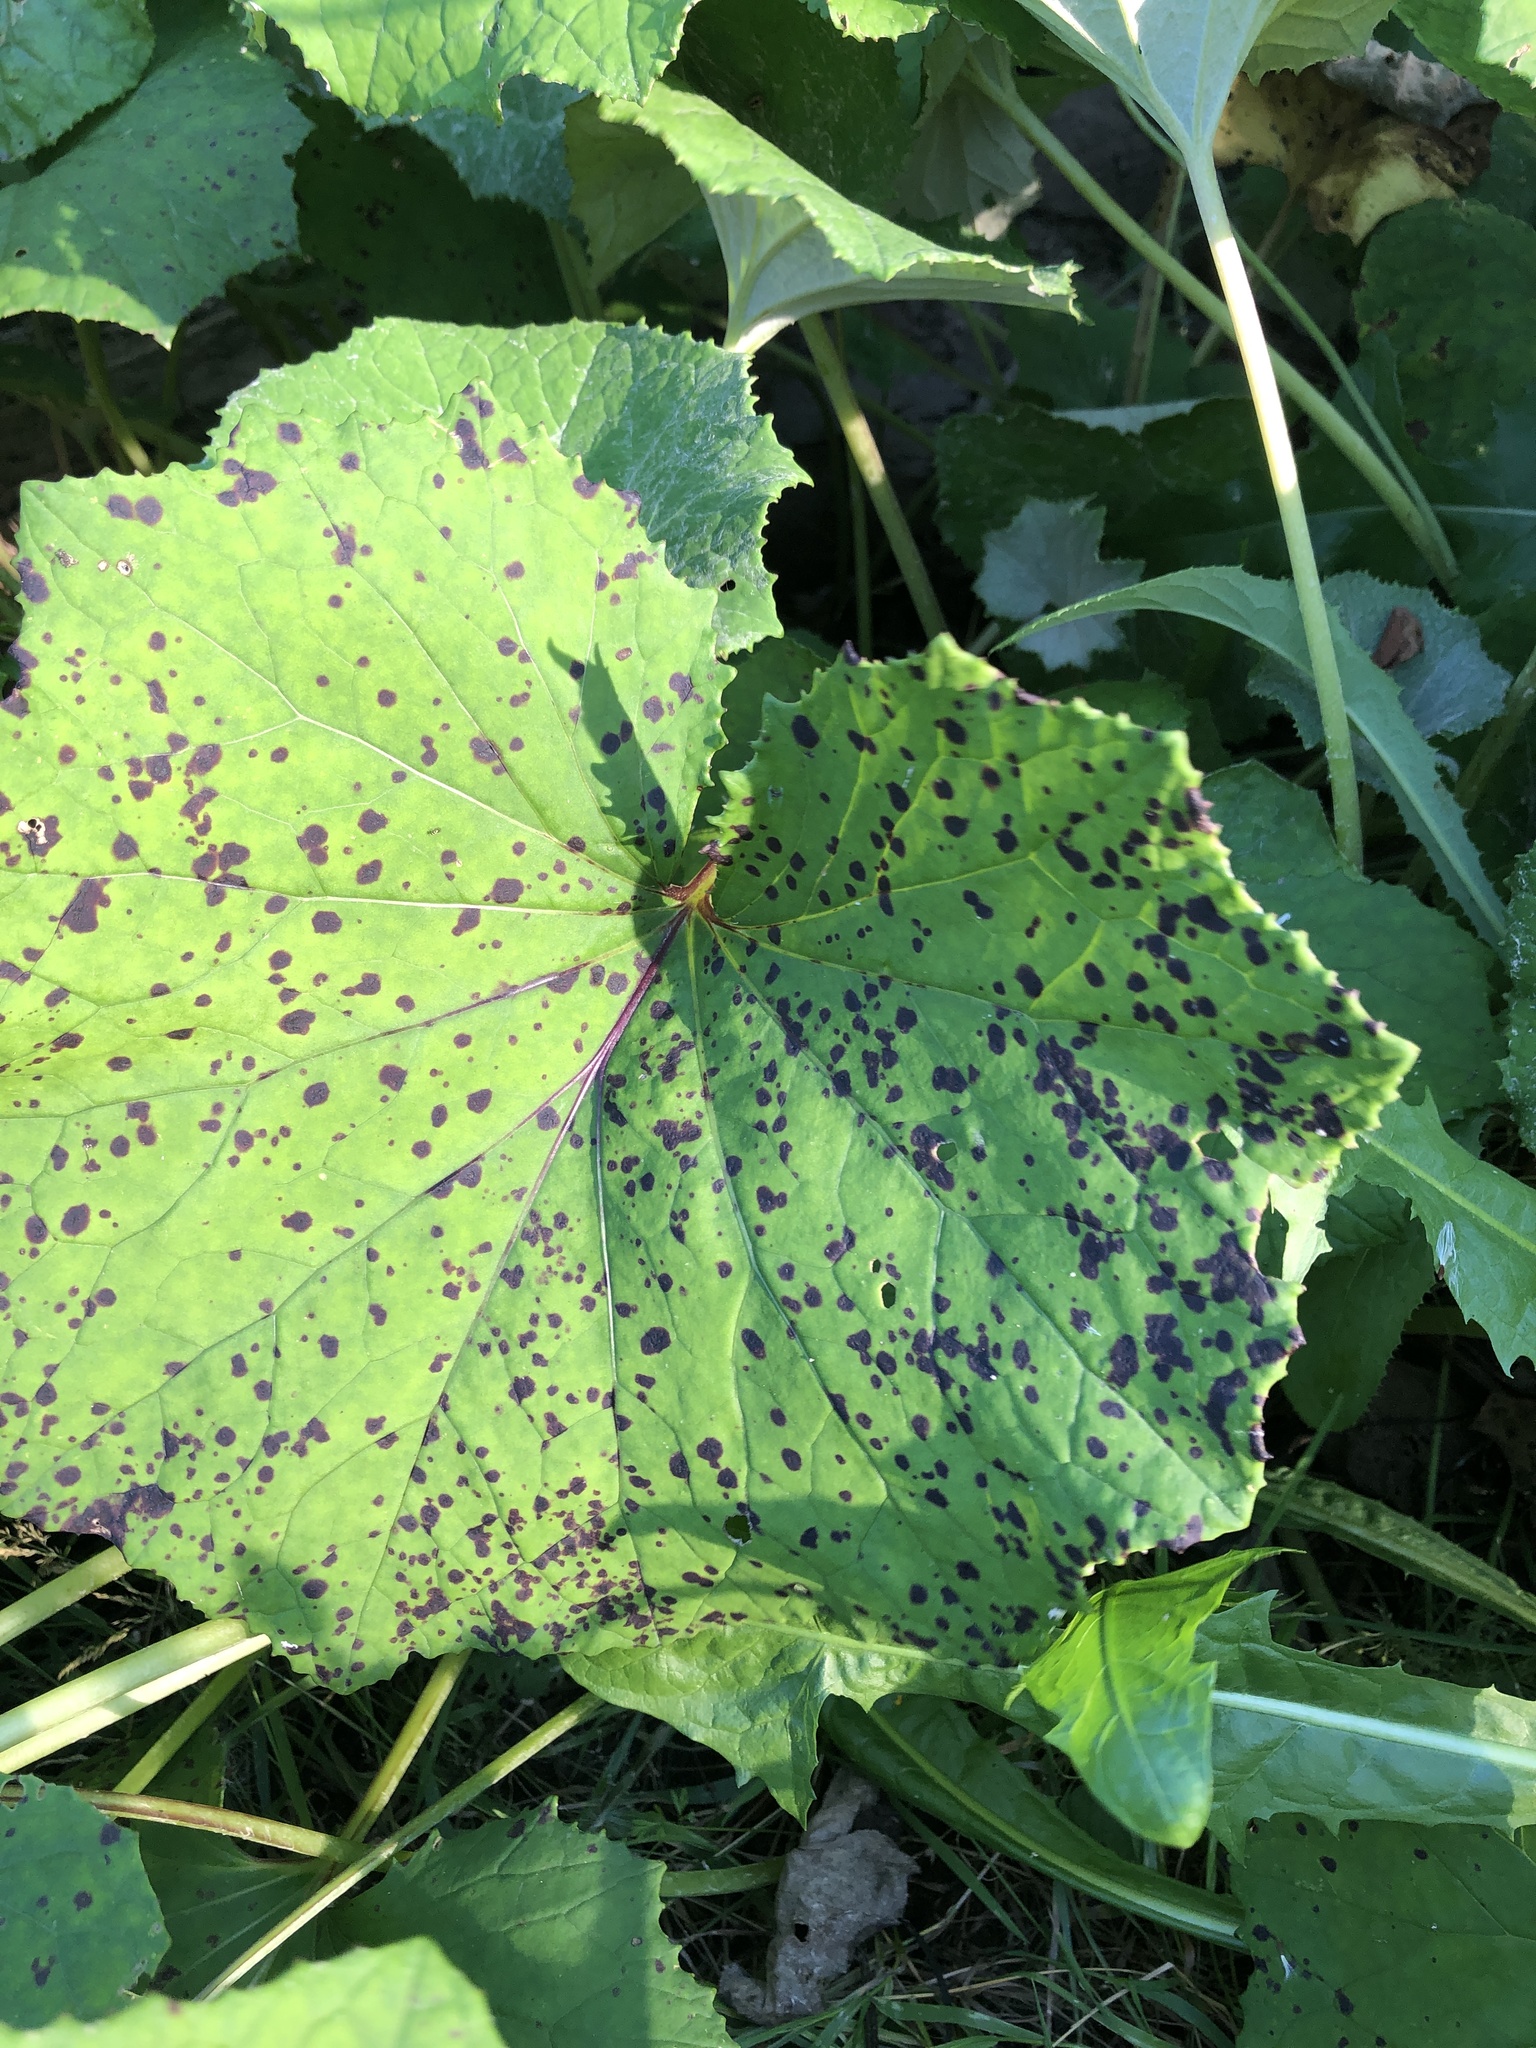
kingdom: Plantae
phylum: Tracheophyta
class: Magnoliopsida
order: Asterales
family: Asteraceae
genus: Tussilago
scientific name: Tussilago farfara
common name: Coltsfoot
